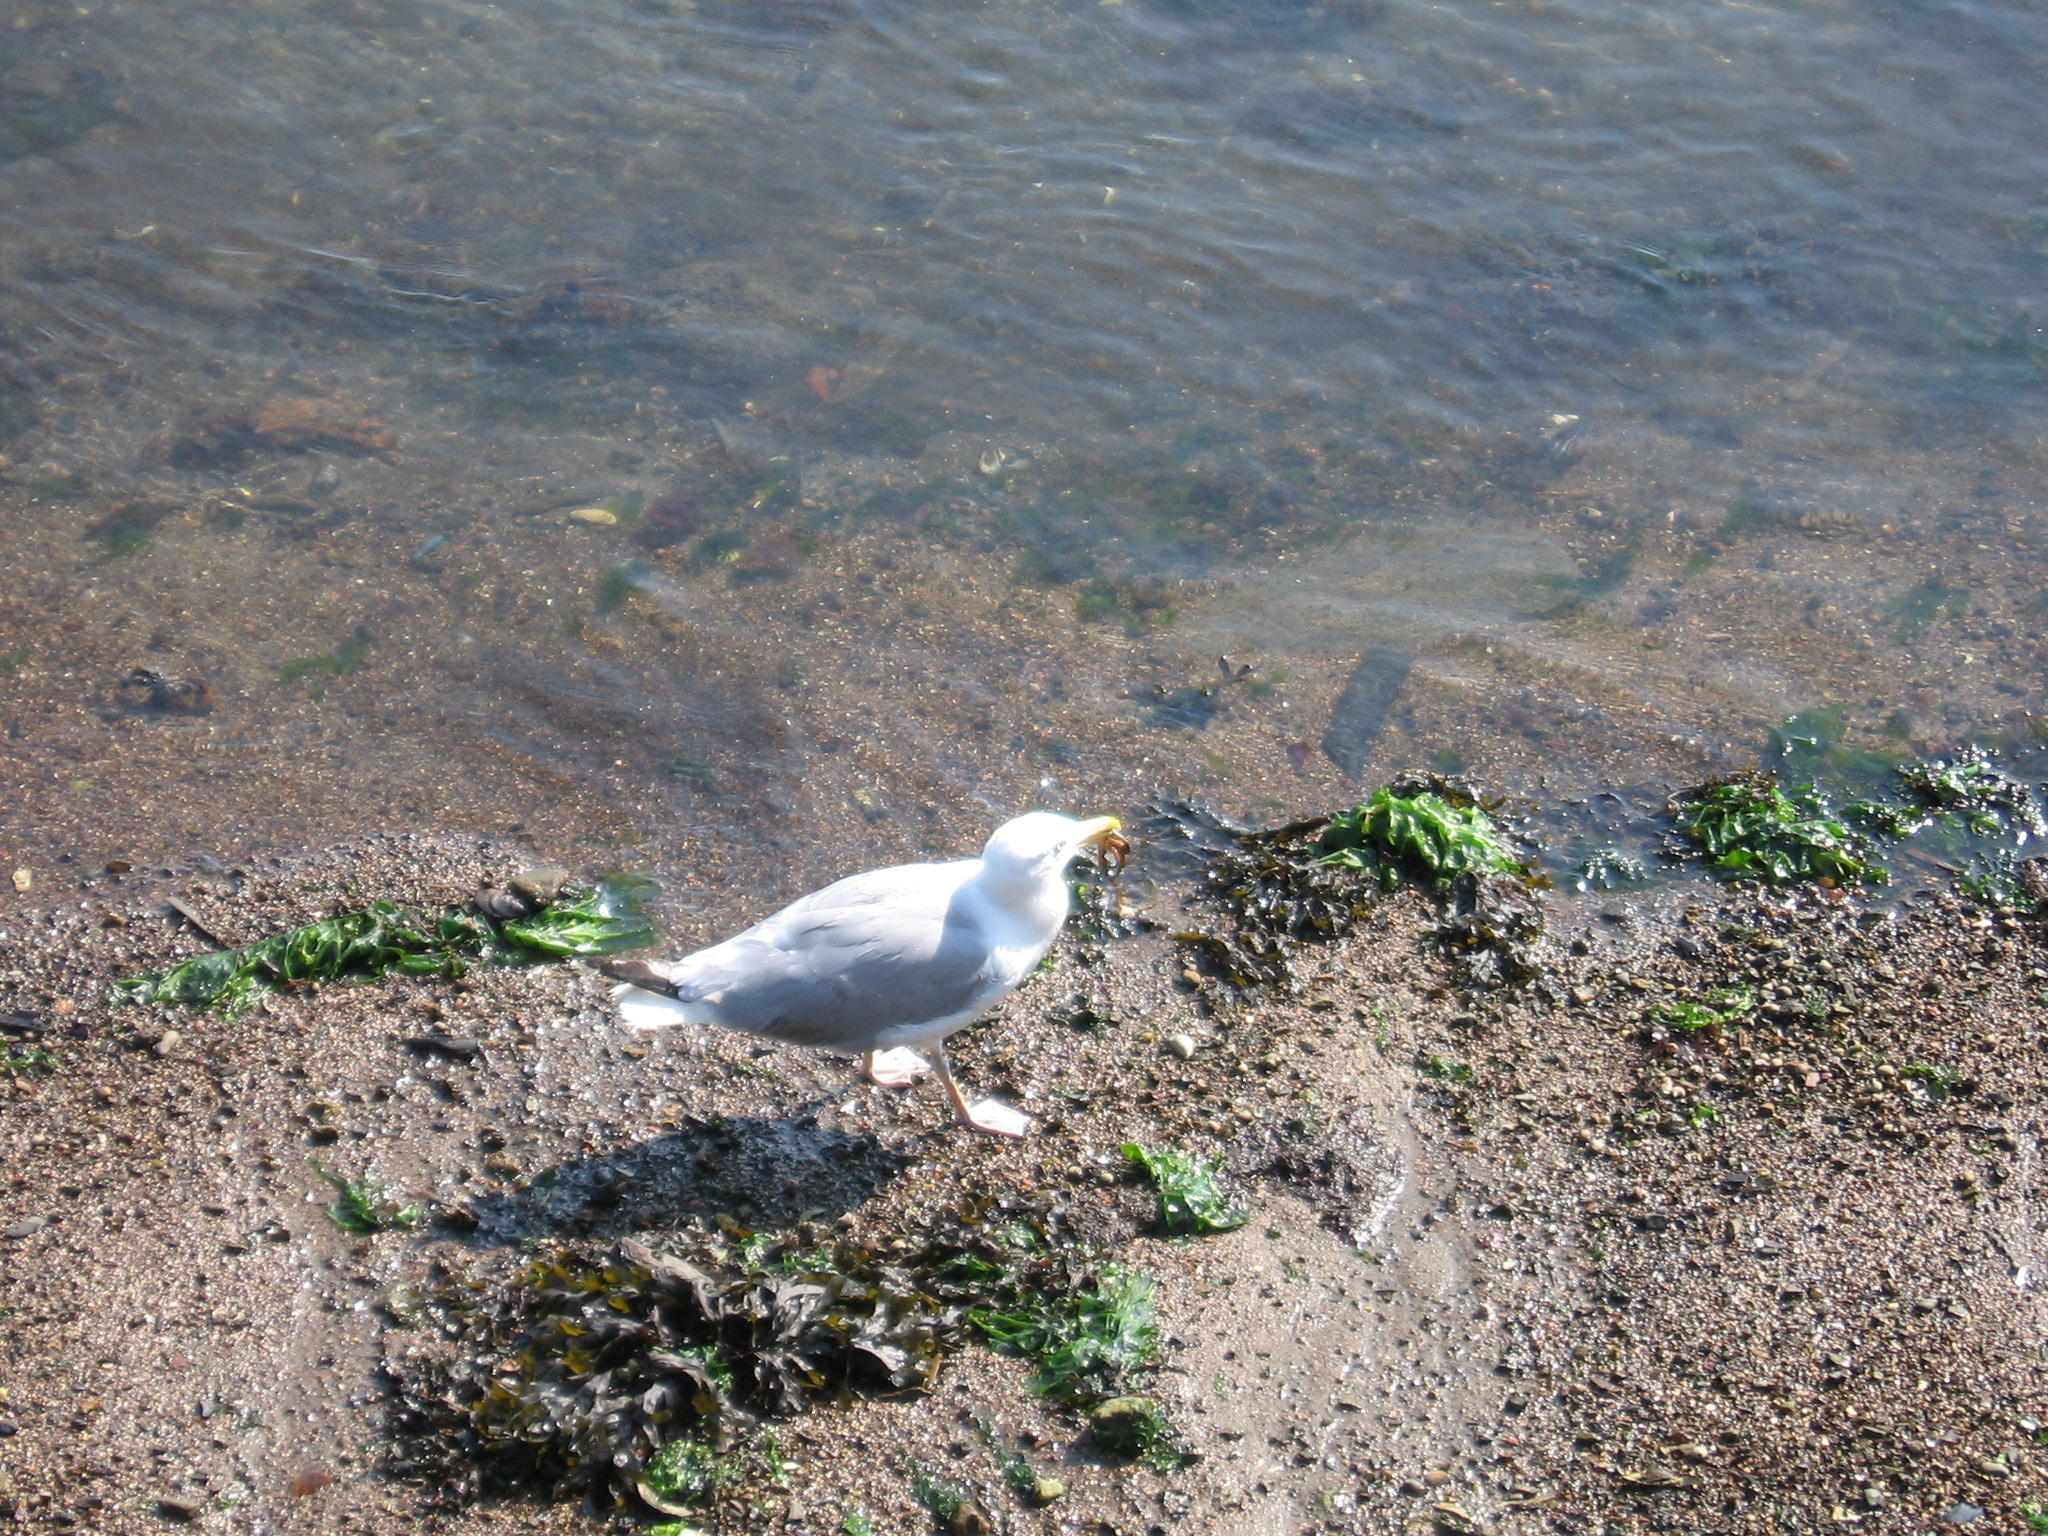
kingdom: Animalia
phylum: Chordata
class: Aves
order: Charadriiformes
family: Laridae
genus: Larus
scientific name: Larus delawarensis
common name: Ring-billed gull
